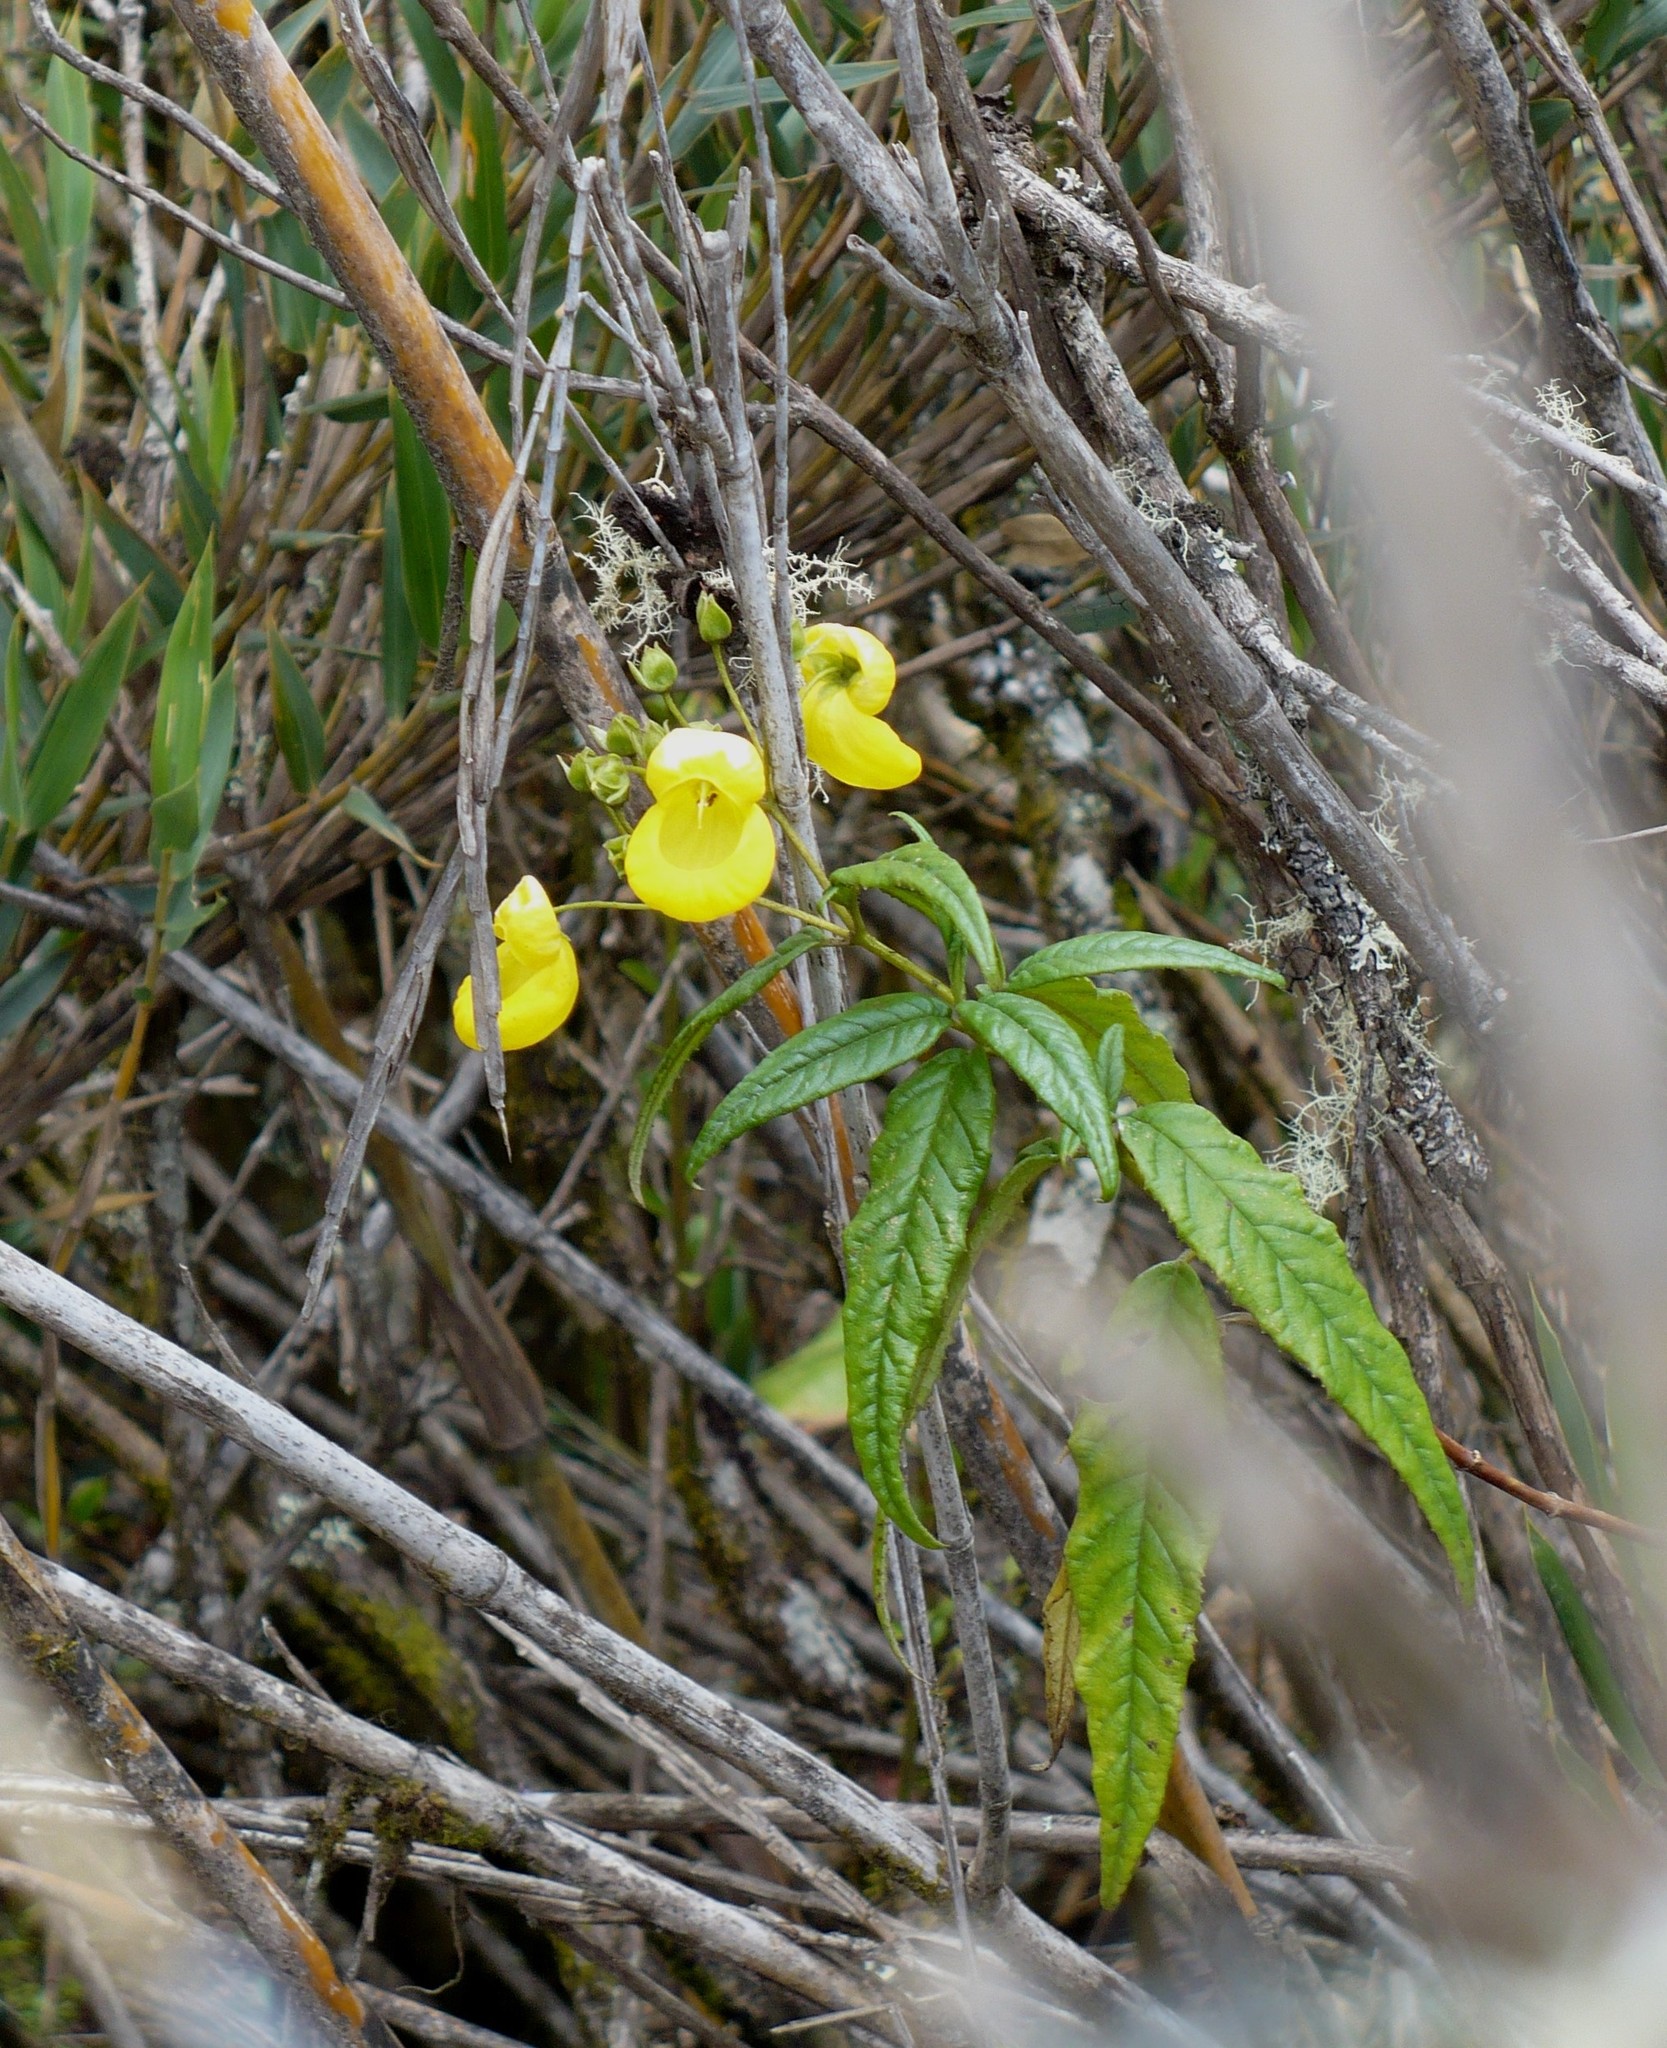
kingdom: Plantae
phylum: Tracheophyta
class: Magnoliopsida
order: Lamiales
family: Calceolariaceae
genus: Calceolaria
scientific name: Calceolaria microbefaria
